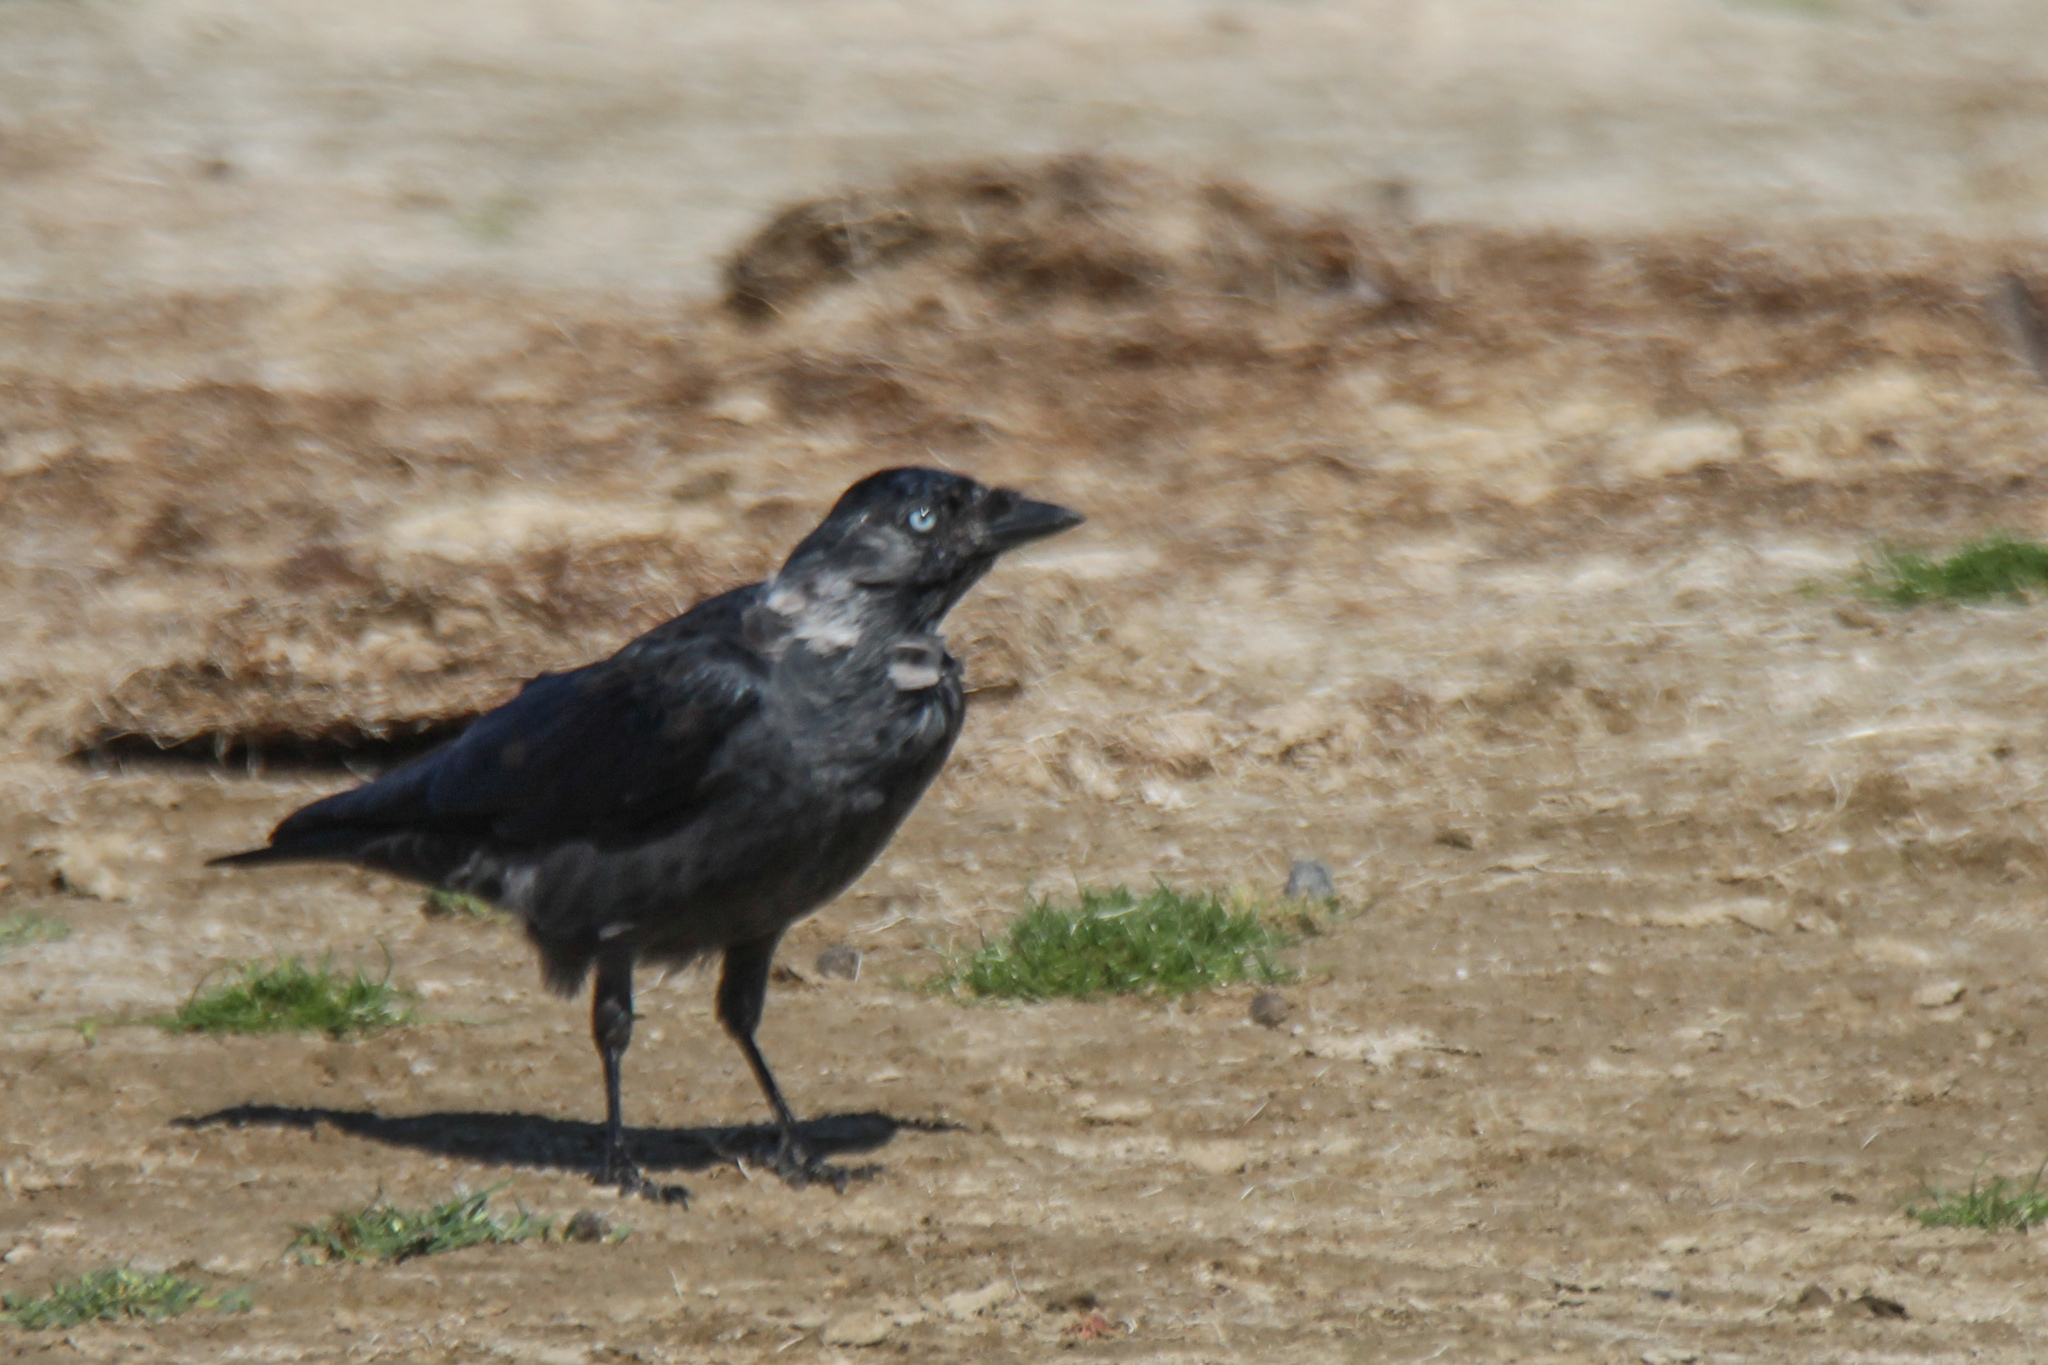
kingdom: Animalia
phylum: Chordata
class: Aves
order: Passeriformes
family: Corvidae
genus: Coloeus
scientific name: Coloeus monedula
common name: Western jackdaw
